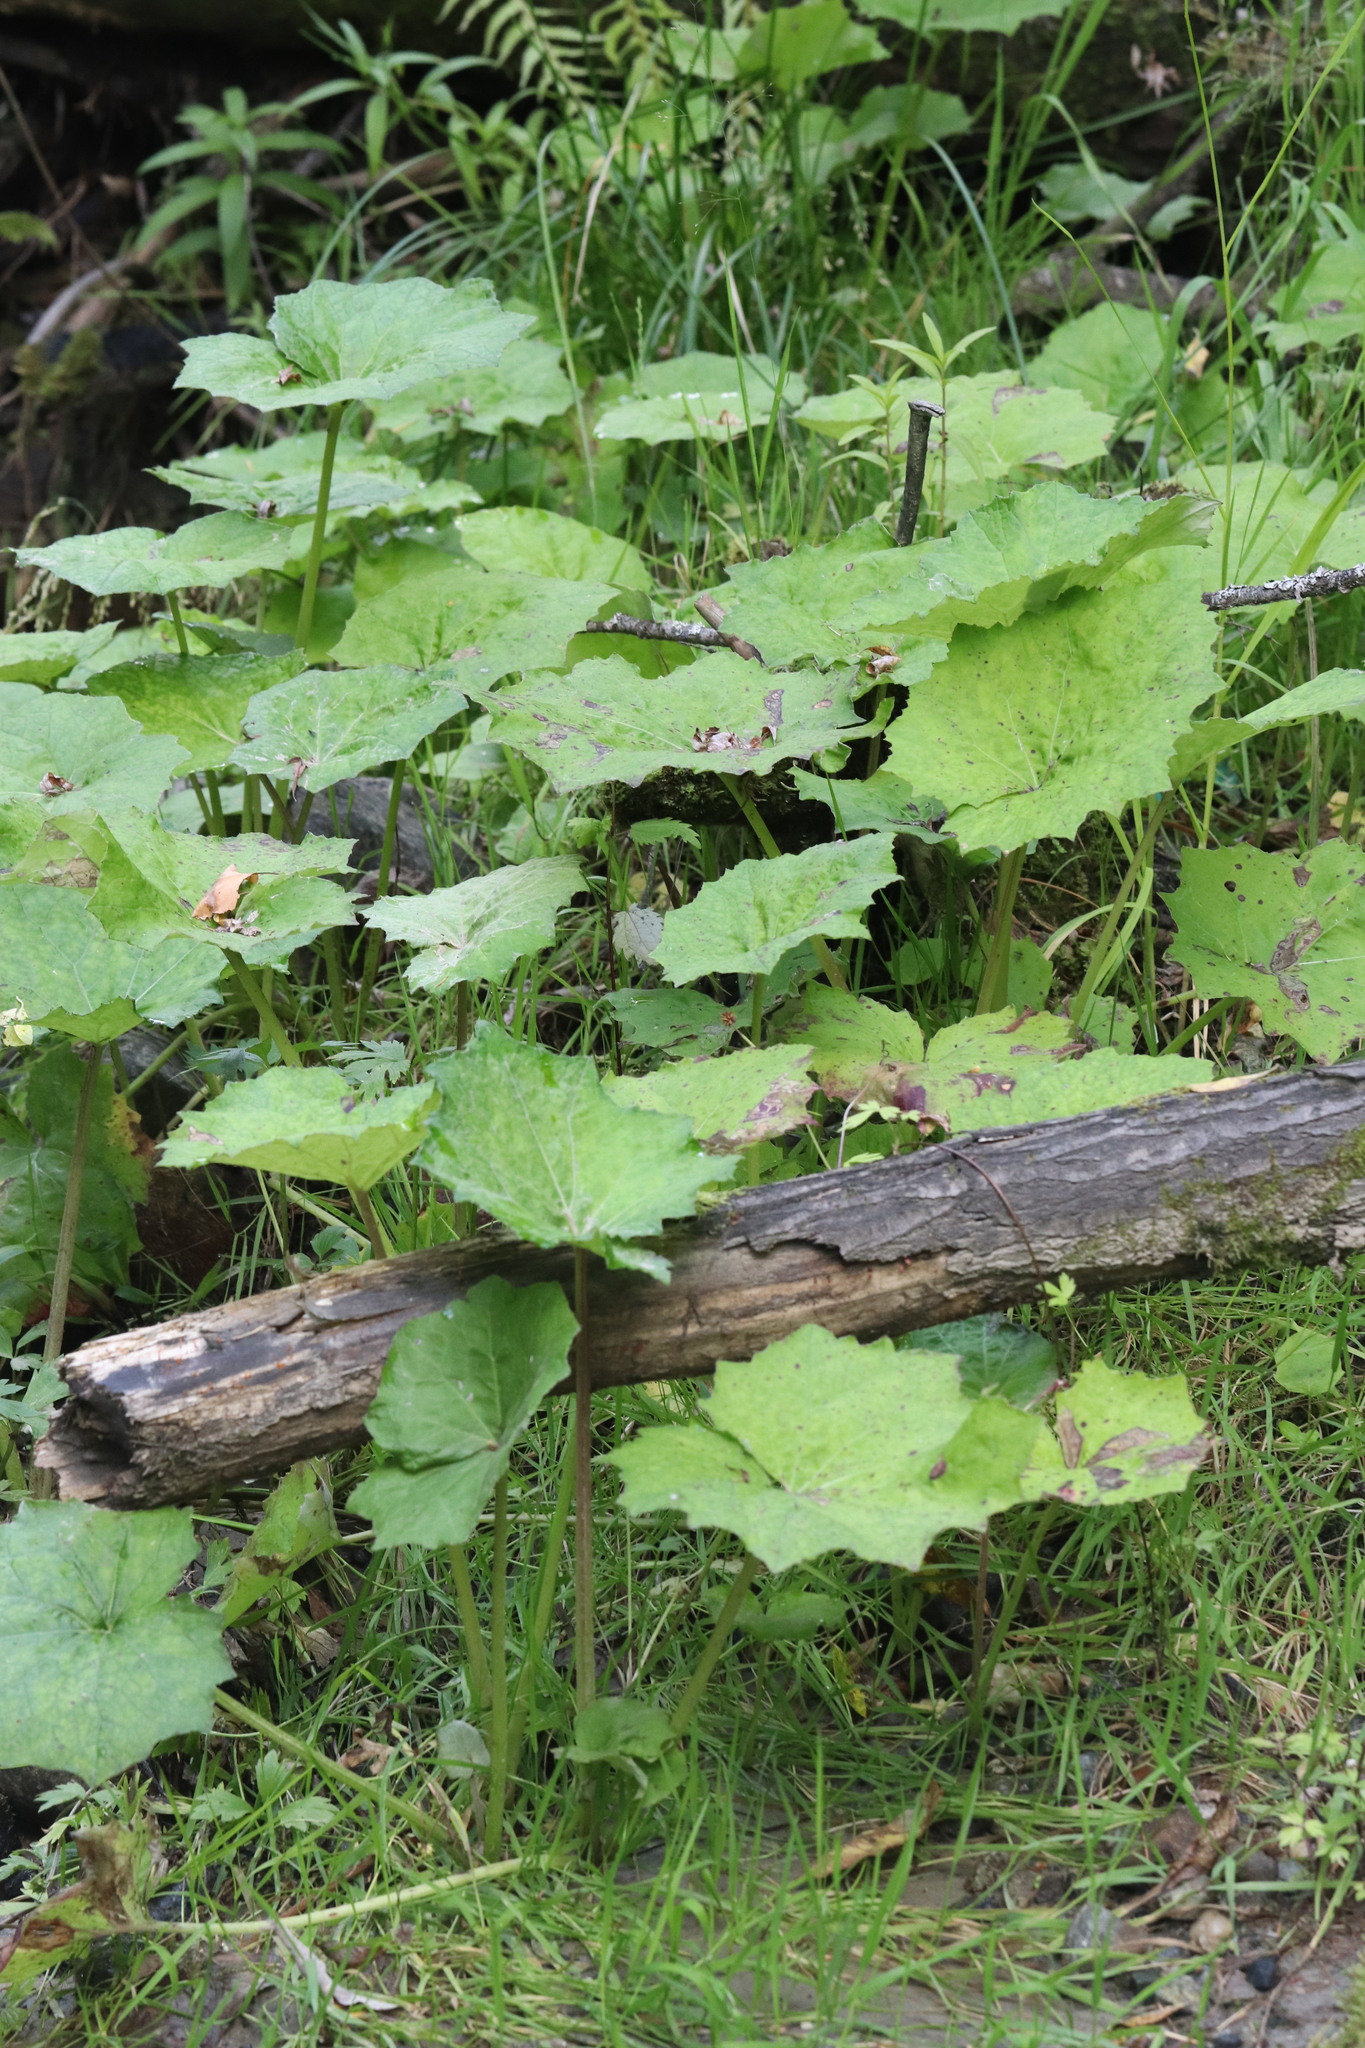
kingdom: Plantae
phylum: Tracheophyta
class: Magnoliopsida
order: Asterales
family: Asteraceae
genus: Tussilago
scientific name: Tussilago farfara
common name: Coltsfoot
